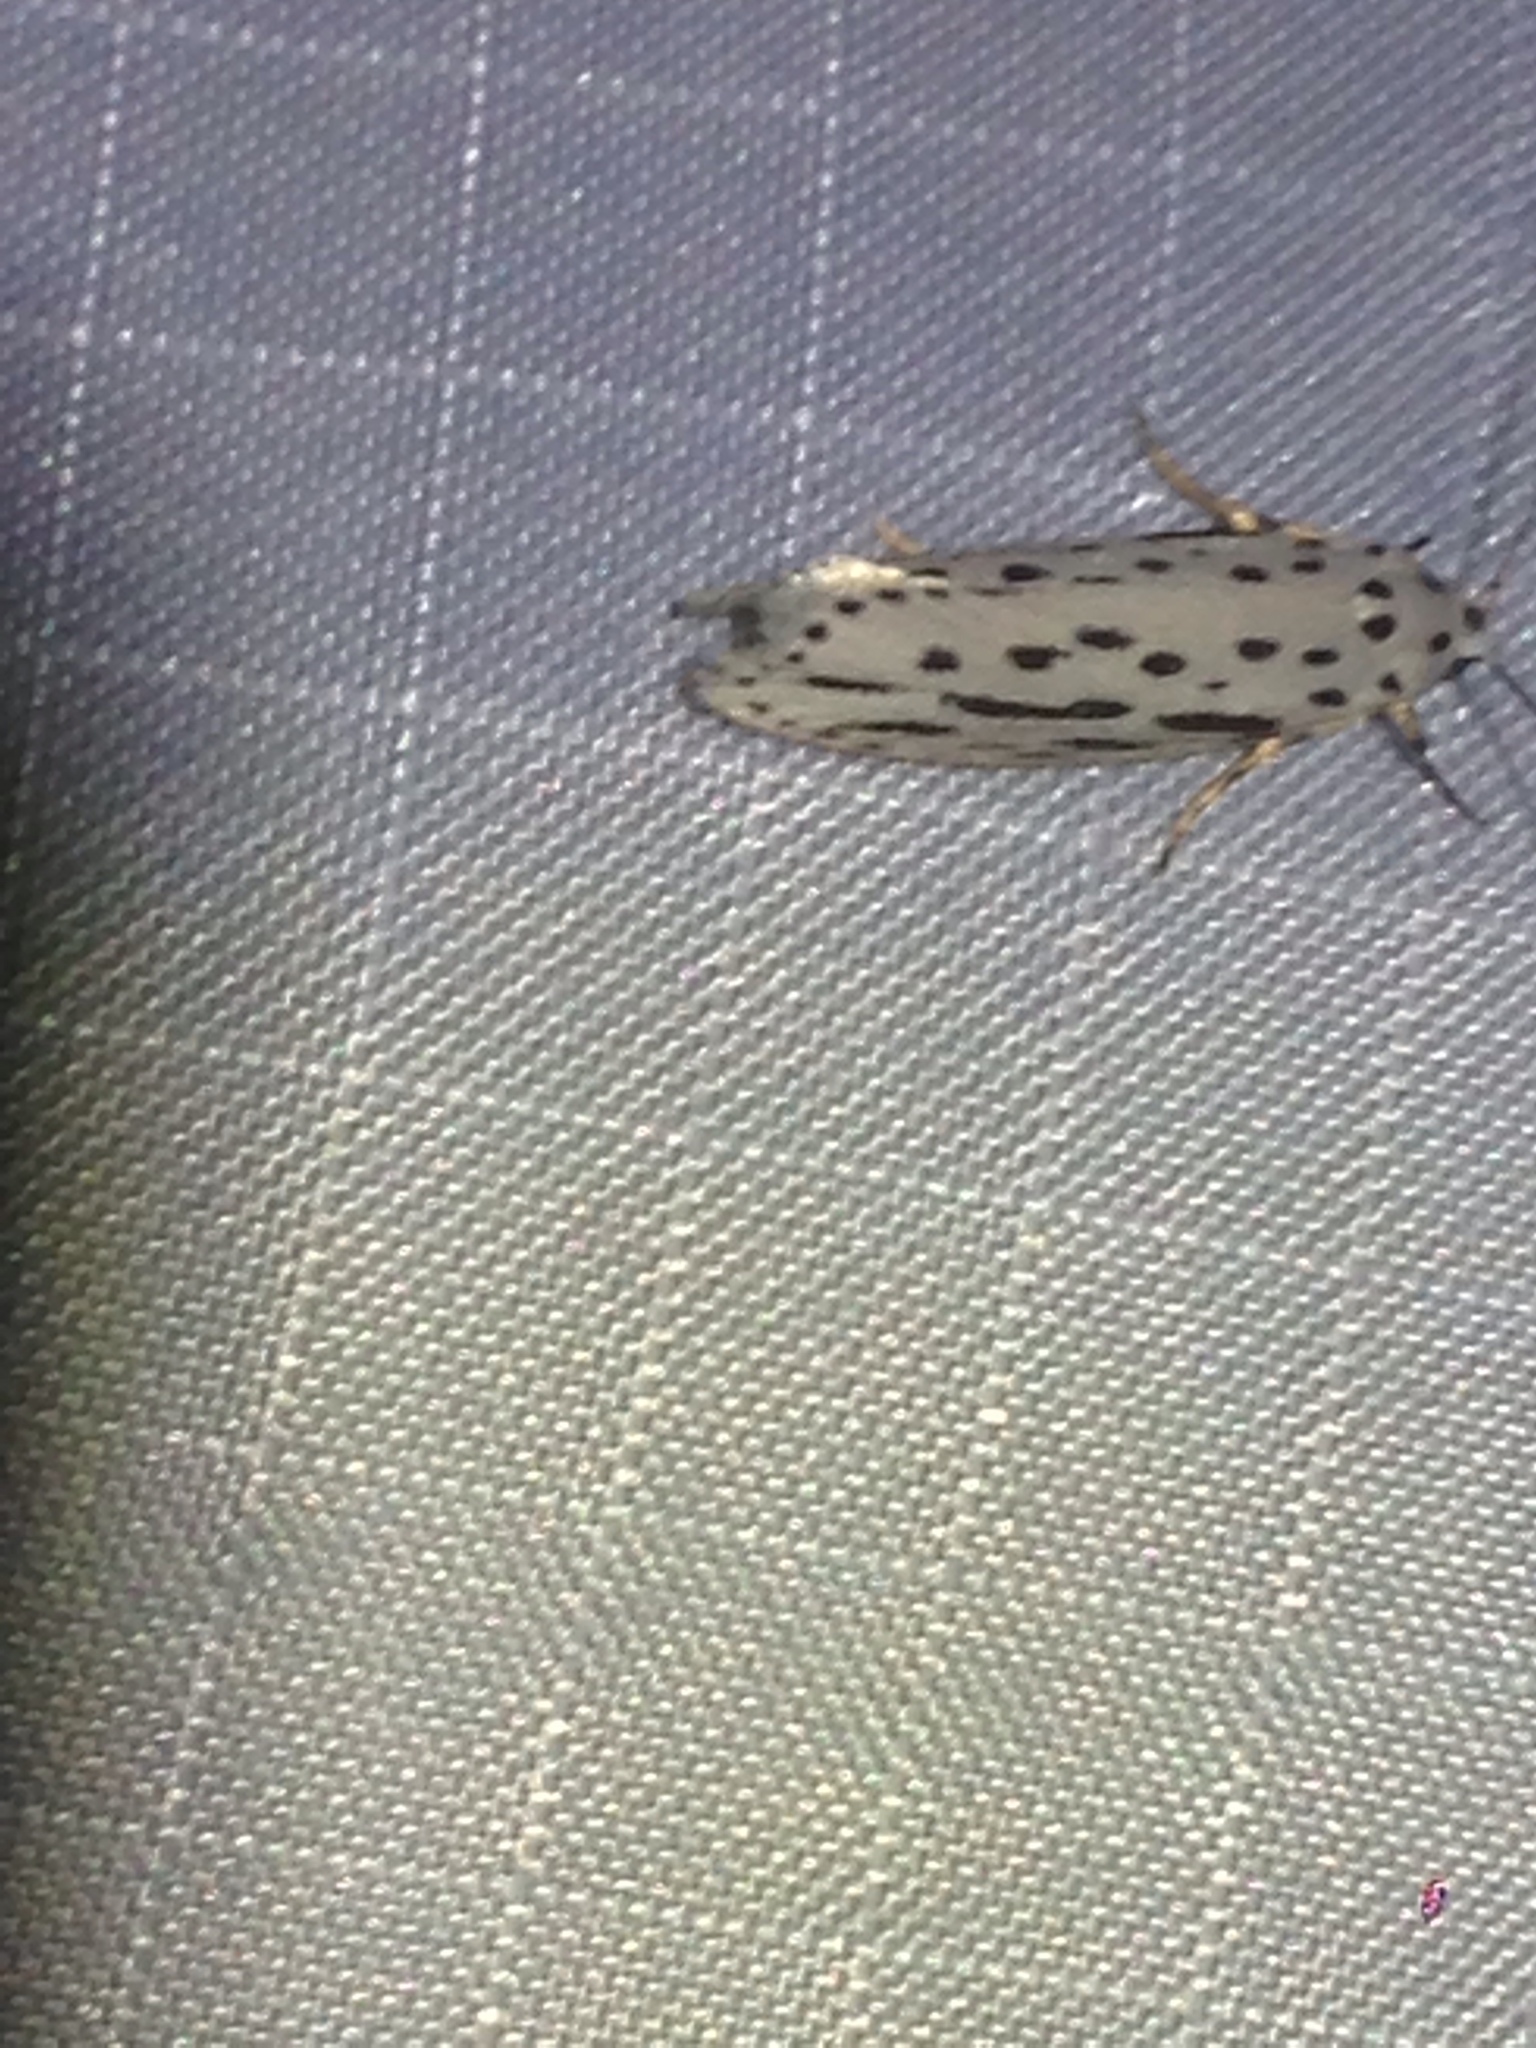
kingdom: Animalia
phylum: Arthropoda
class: Insecta
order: Lepidoptera
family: Ethmiidae
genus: Ethmia
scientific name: Ethmia zelleriella
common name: Zeller's ethmia
